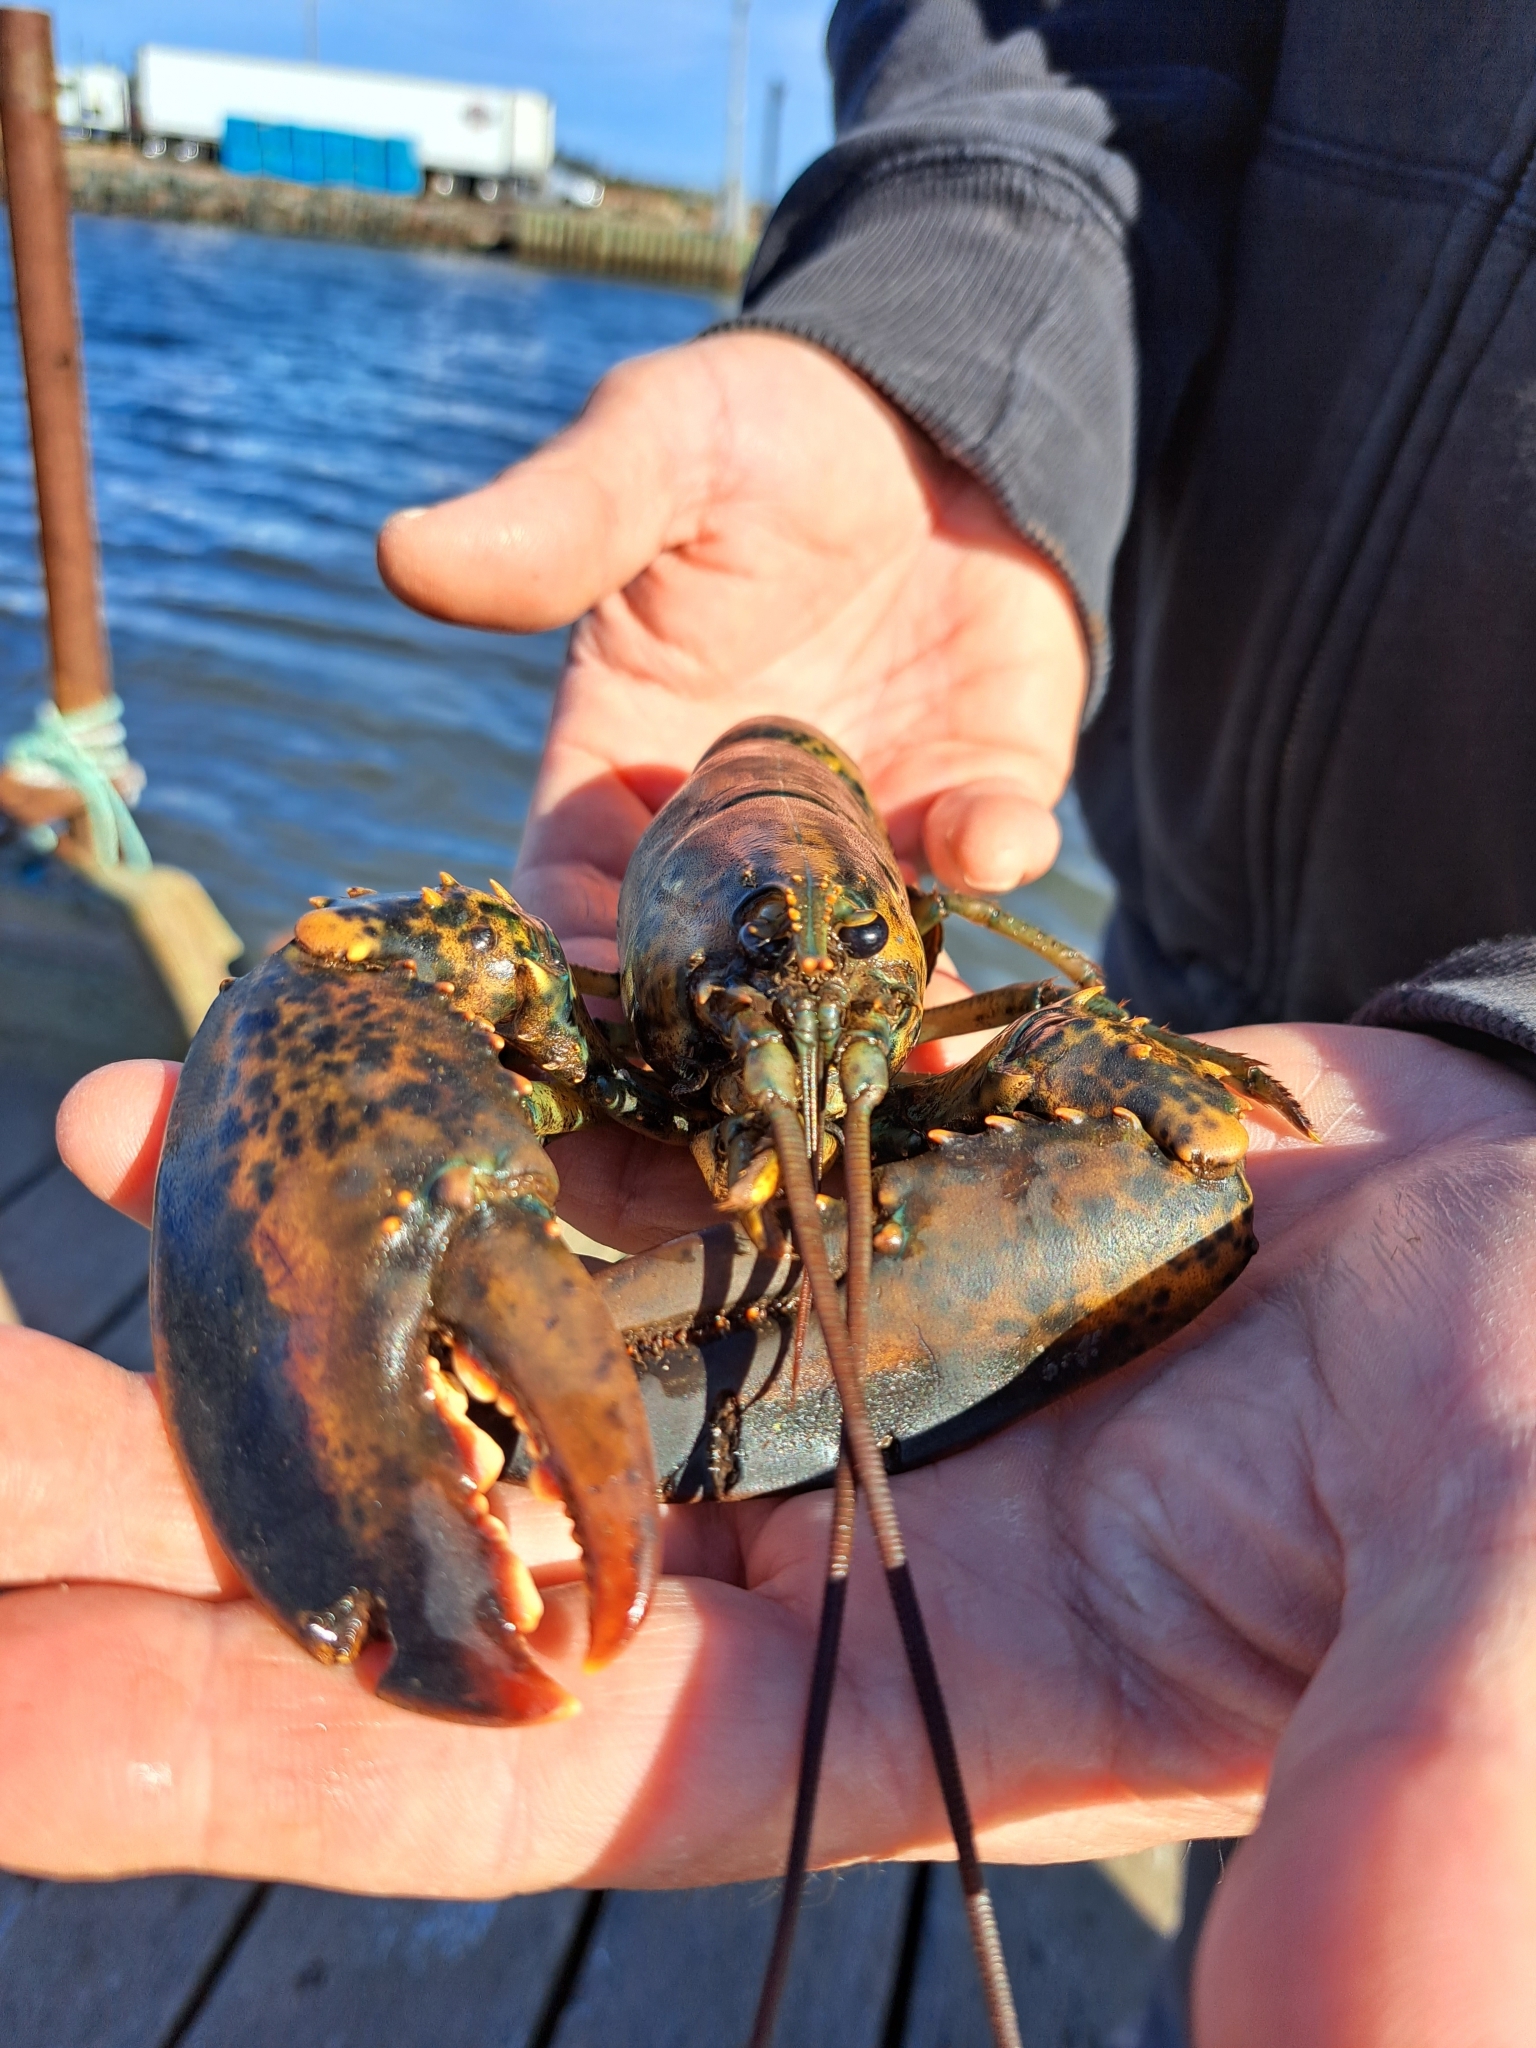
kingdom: Animalia
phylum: Arthropoda
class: Malacostraca
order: Decapoda
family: Nephropidae
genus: Homarus
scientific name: Homarus americanus
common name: American lobster
